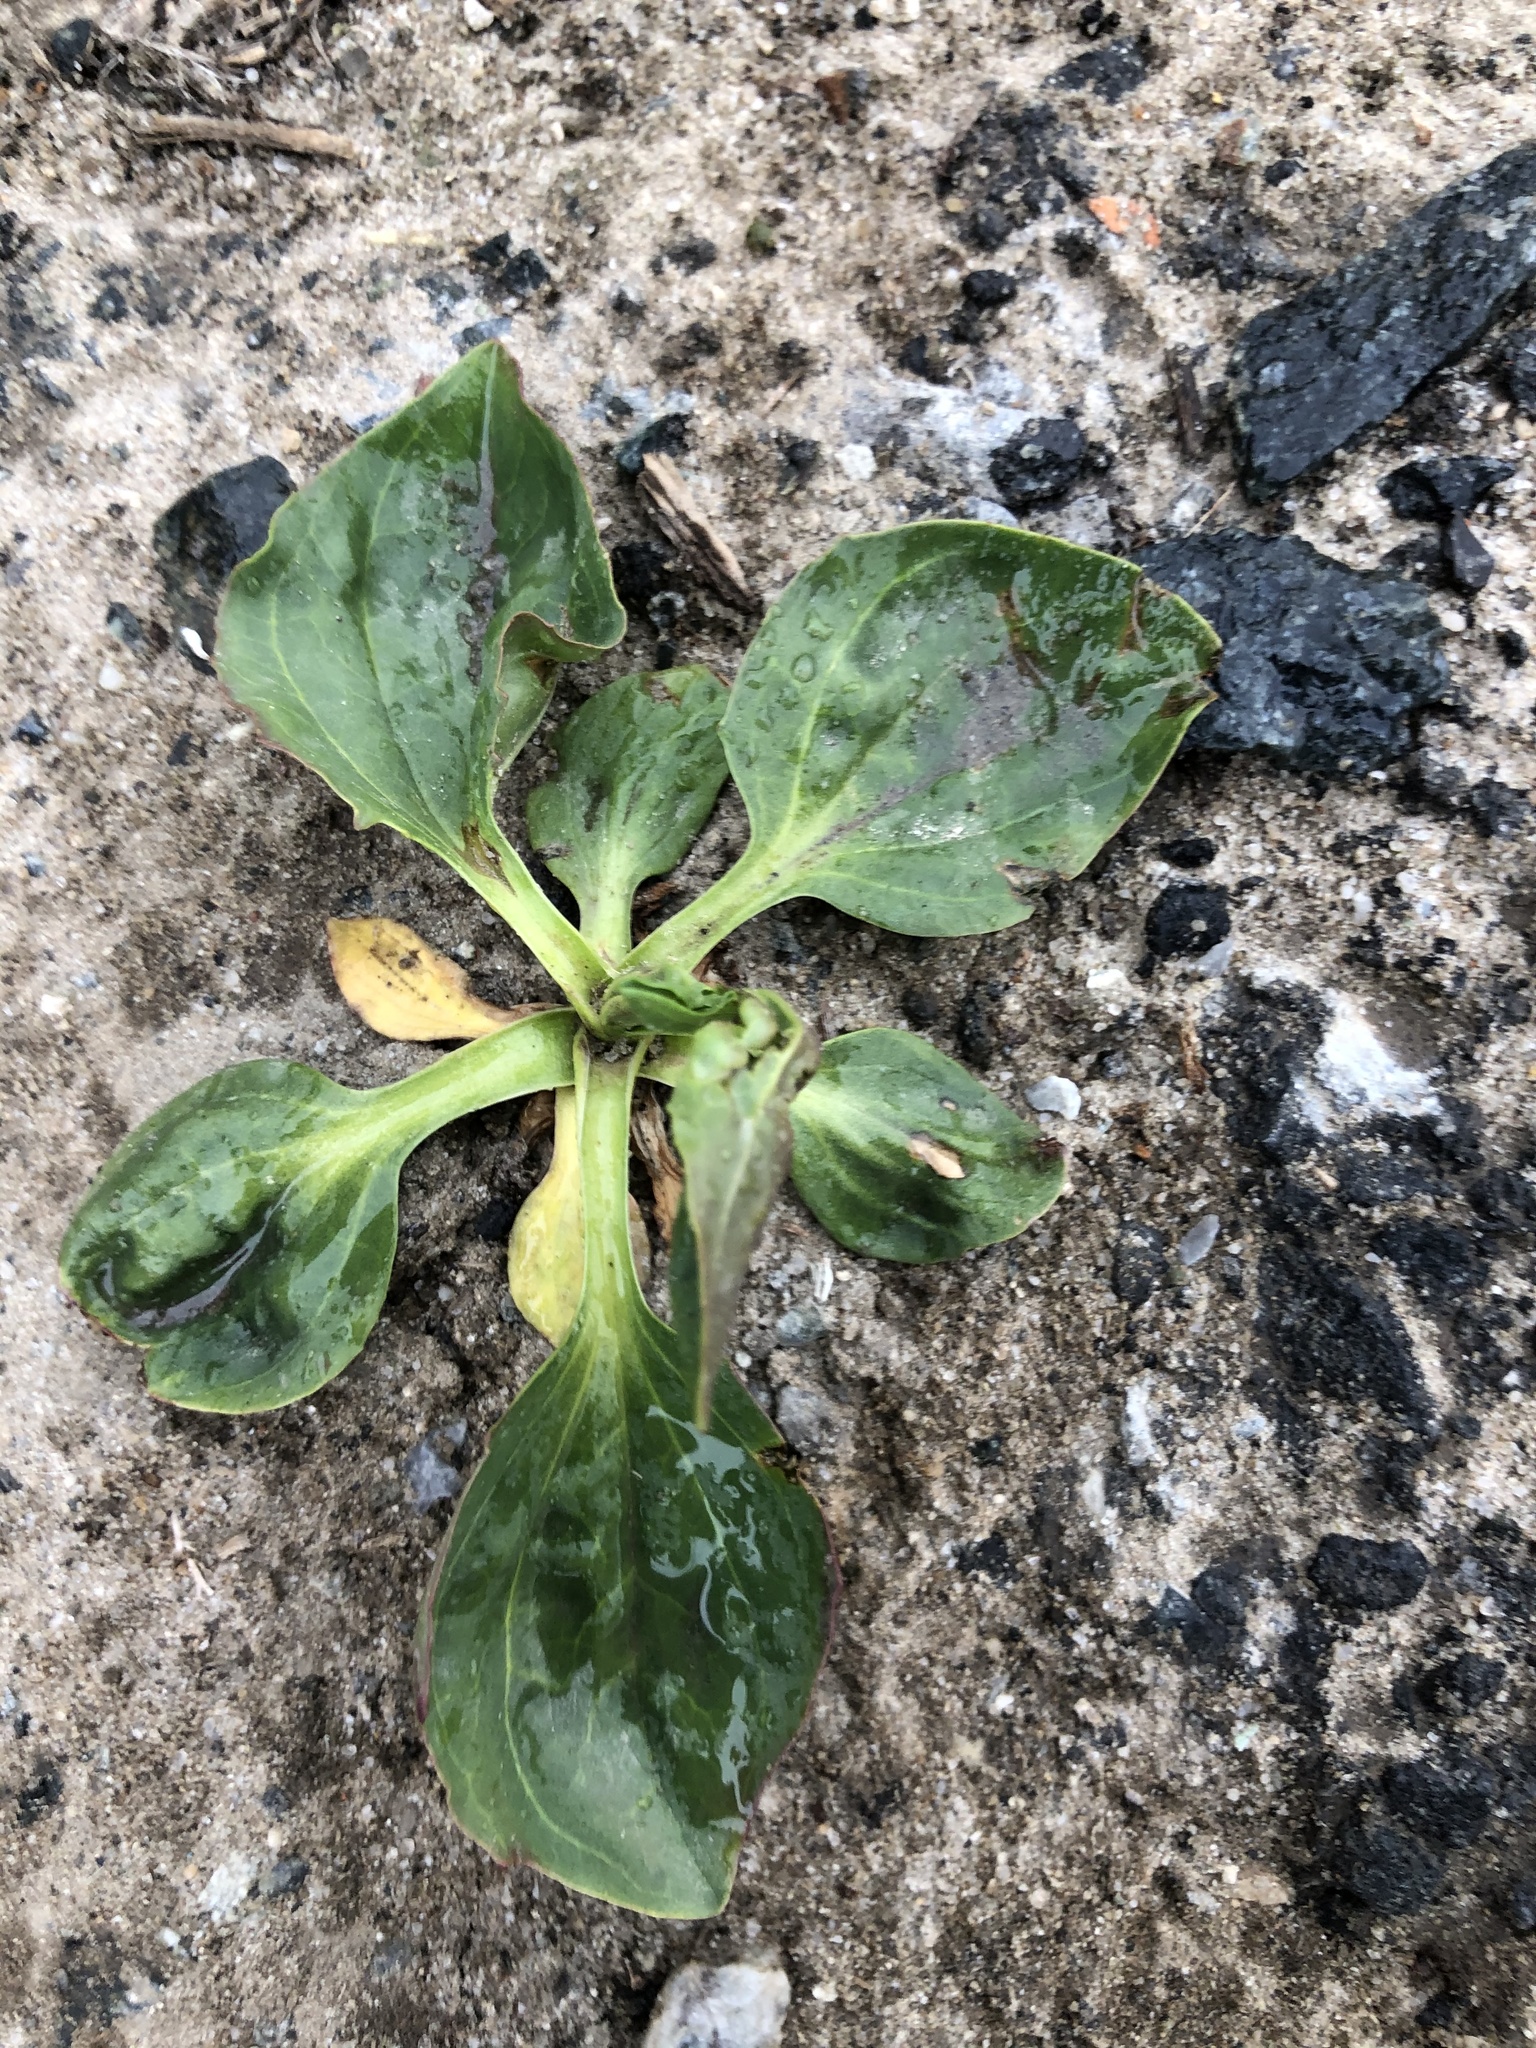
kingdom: Plantae
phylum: Tracheophyta
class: Magnoliopsida
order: Lamiales
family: Plantaginaceae
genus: Plantago
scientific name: Plantago major
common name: Common plantain
